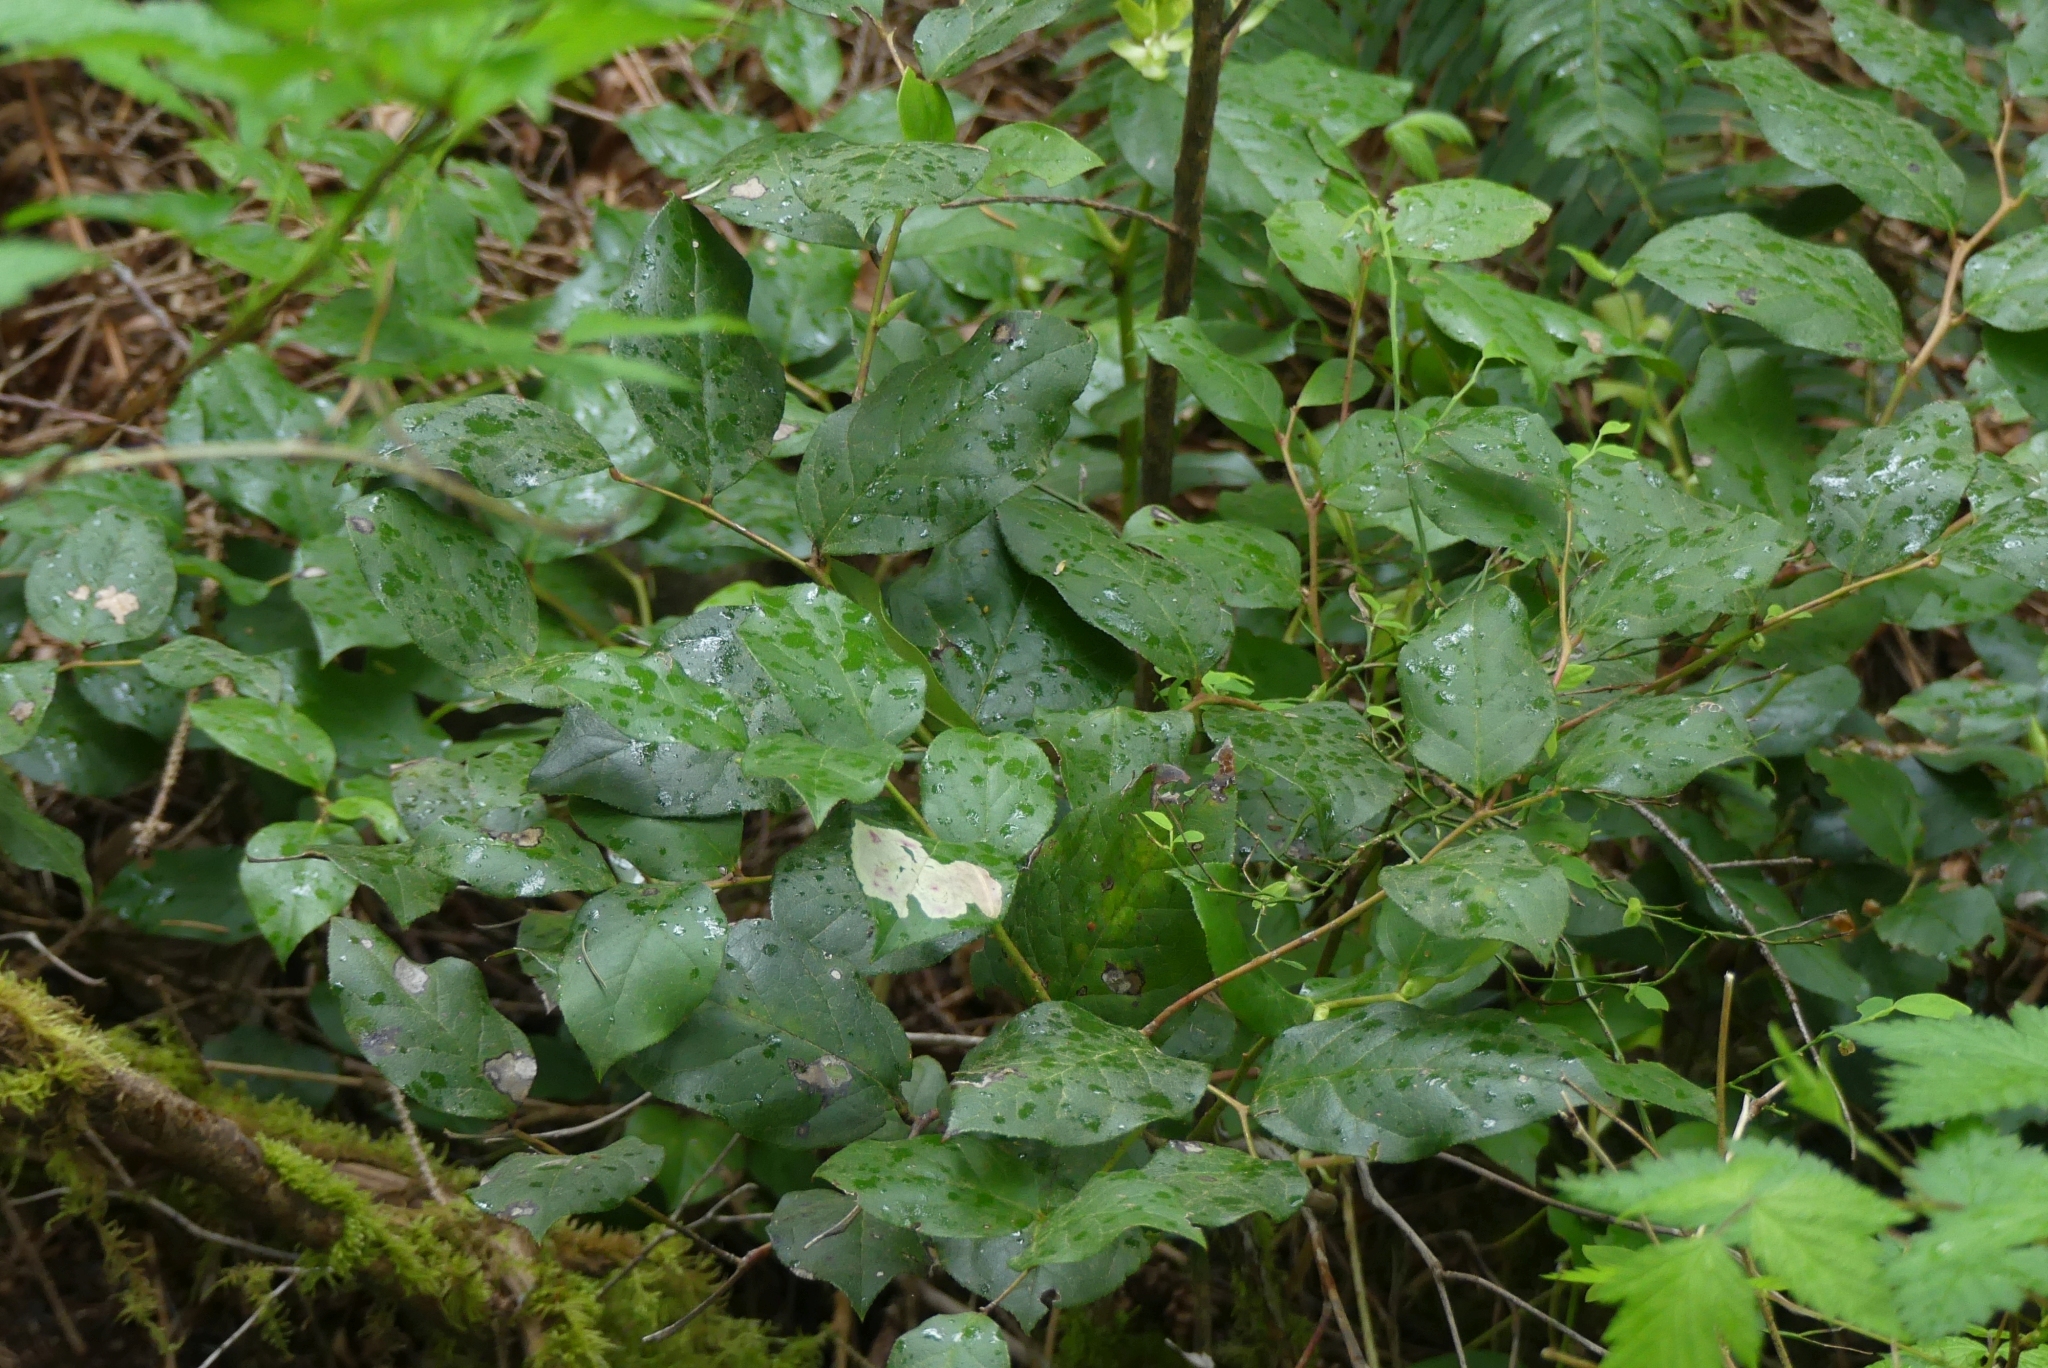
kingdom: Plantae
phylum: Tracheophyta
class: Magnoliopsida
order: Ericales
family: Ericaceae
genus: Gaultheria
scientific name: Gaultheria shallon
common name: Shallon
